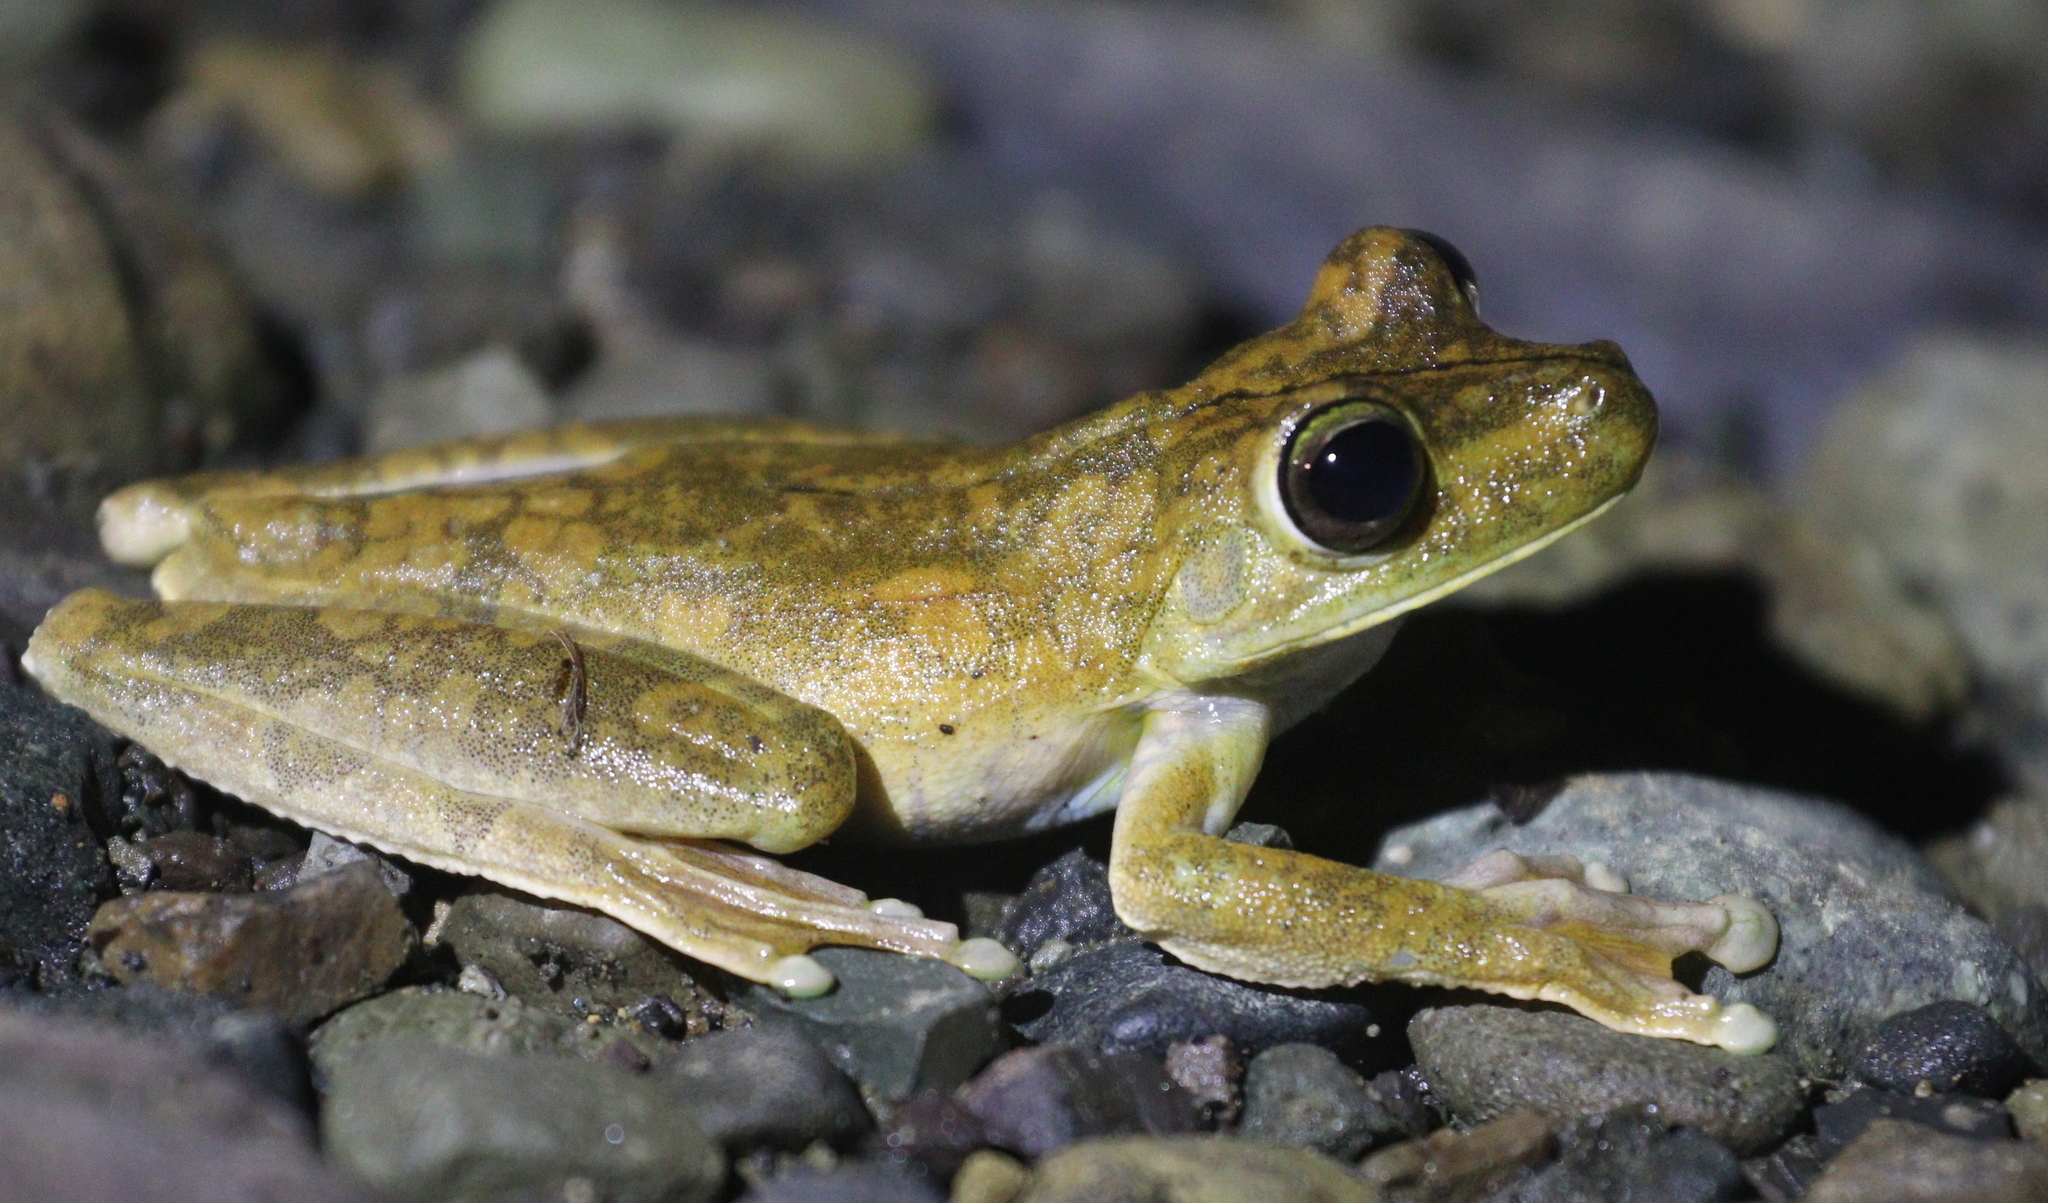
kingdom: Animalia
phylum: Chordata
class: Amphibia
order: Anura
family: Hylidae
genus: Boana
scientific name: Boana rosenbergi
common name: Rosenberg´s gladiator treefrog
